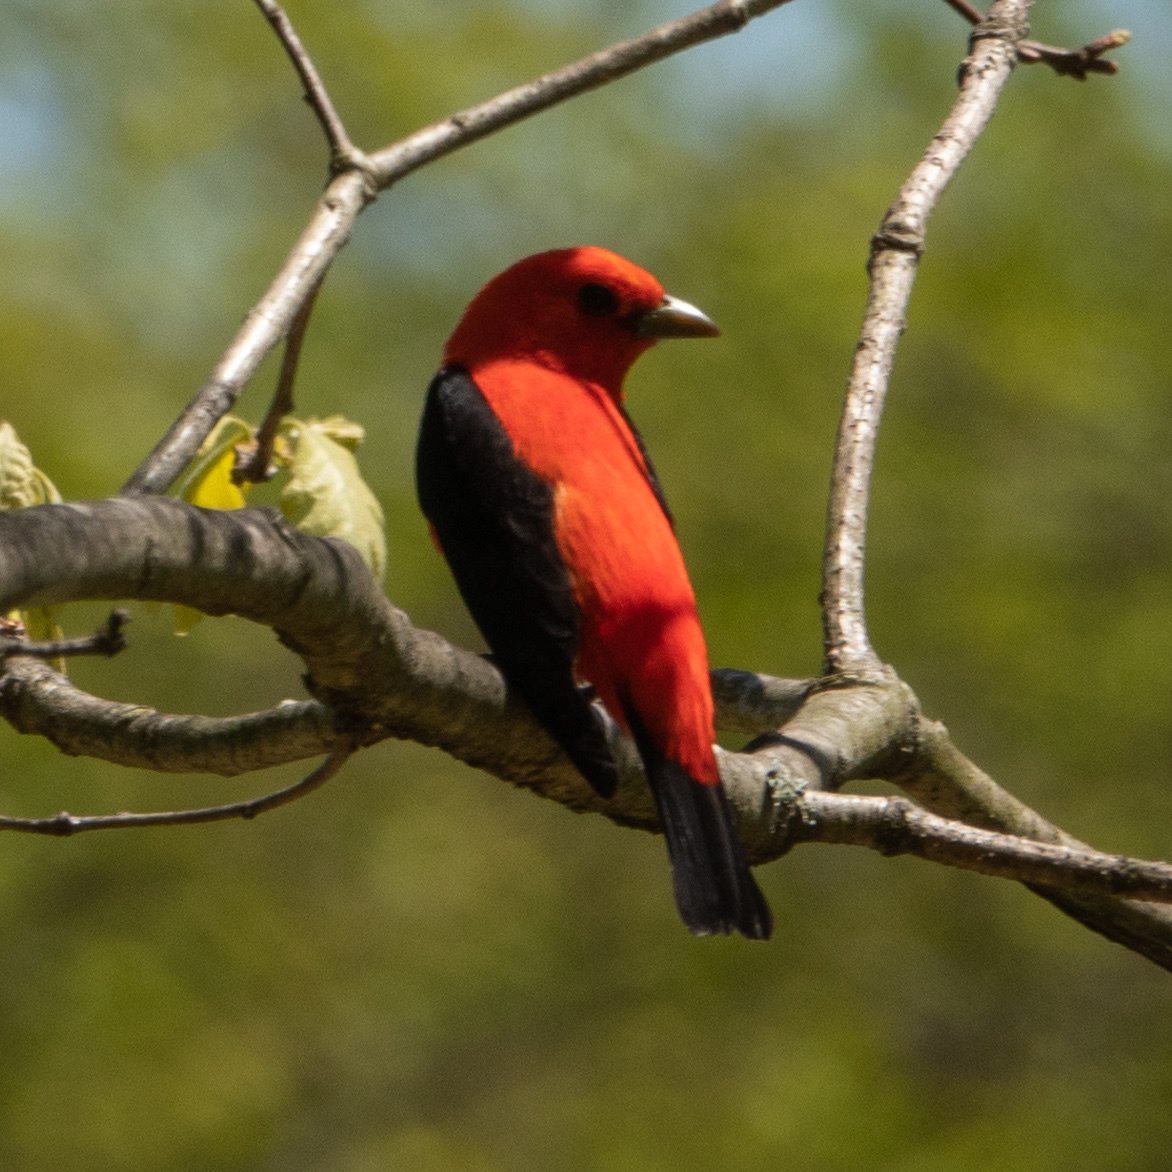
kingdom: Animalia
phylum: Chordata
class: Aves
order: Passeriformes
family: Cardinalidae
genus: Piranga
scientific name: Piranga olivacea
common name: Scarlet tanager
